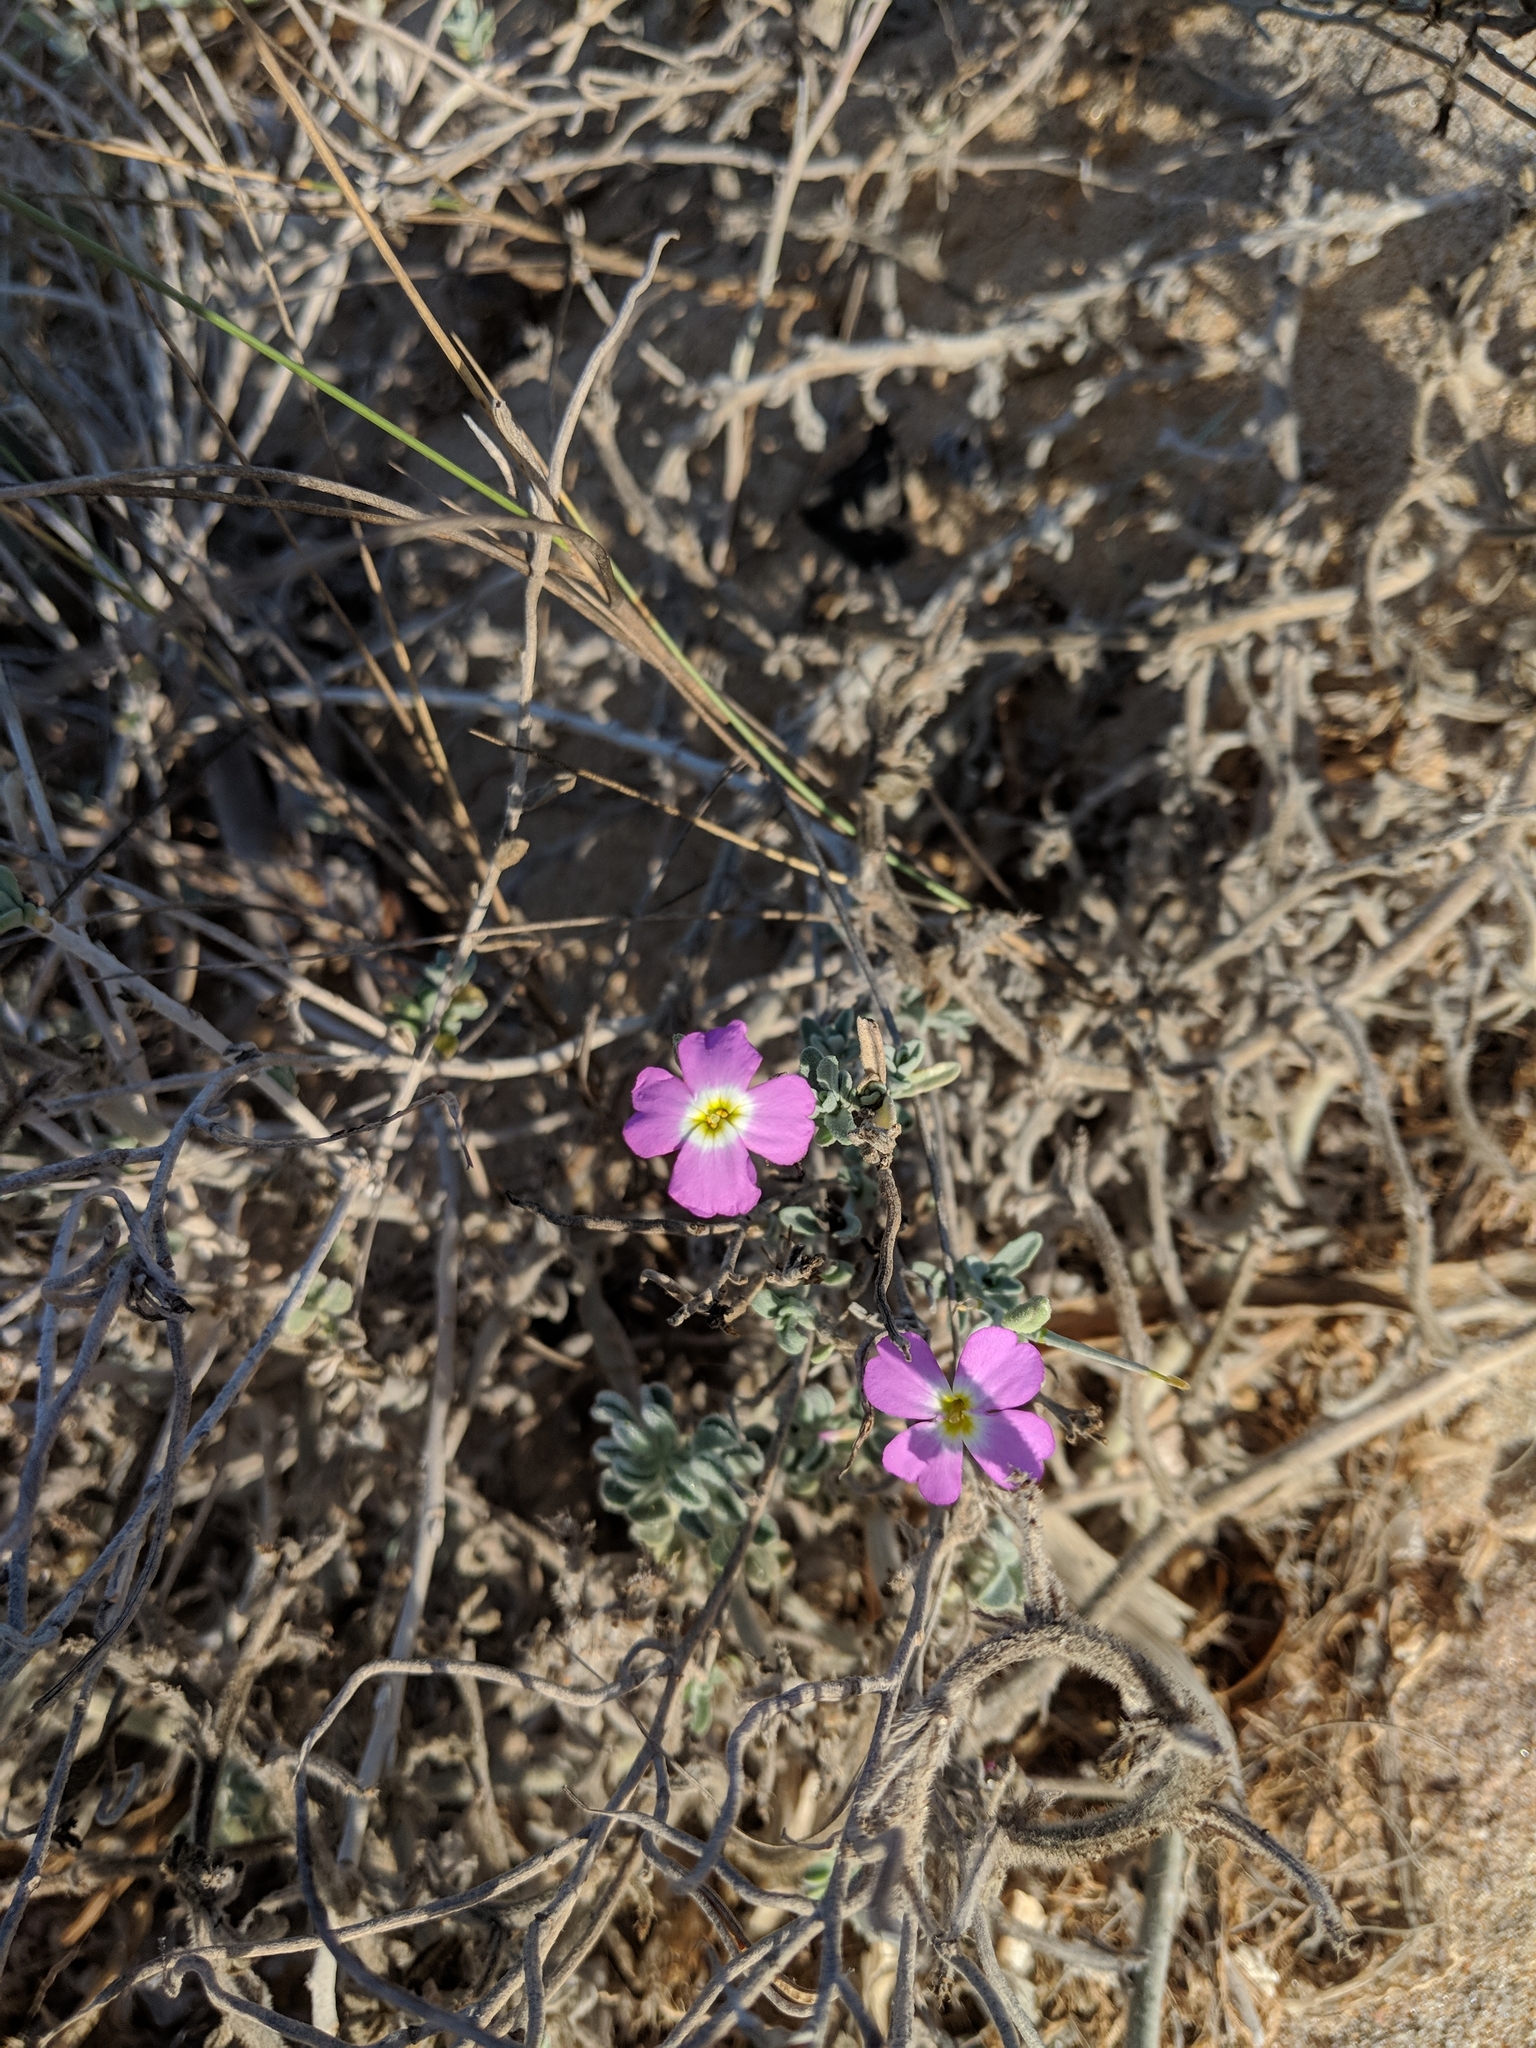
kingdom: Plantae
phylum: Tracheophyta
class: Magnoliopsida
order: Brassicales
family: Brassicaceae
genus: Marcuskochia
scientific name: Marcuskochia littorea
